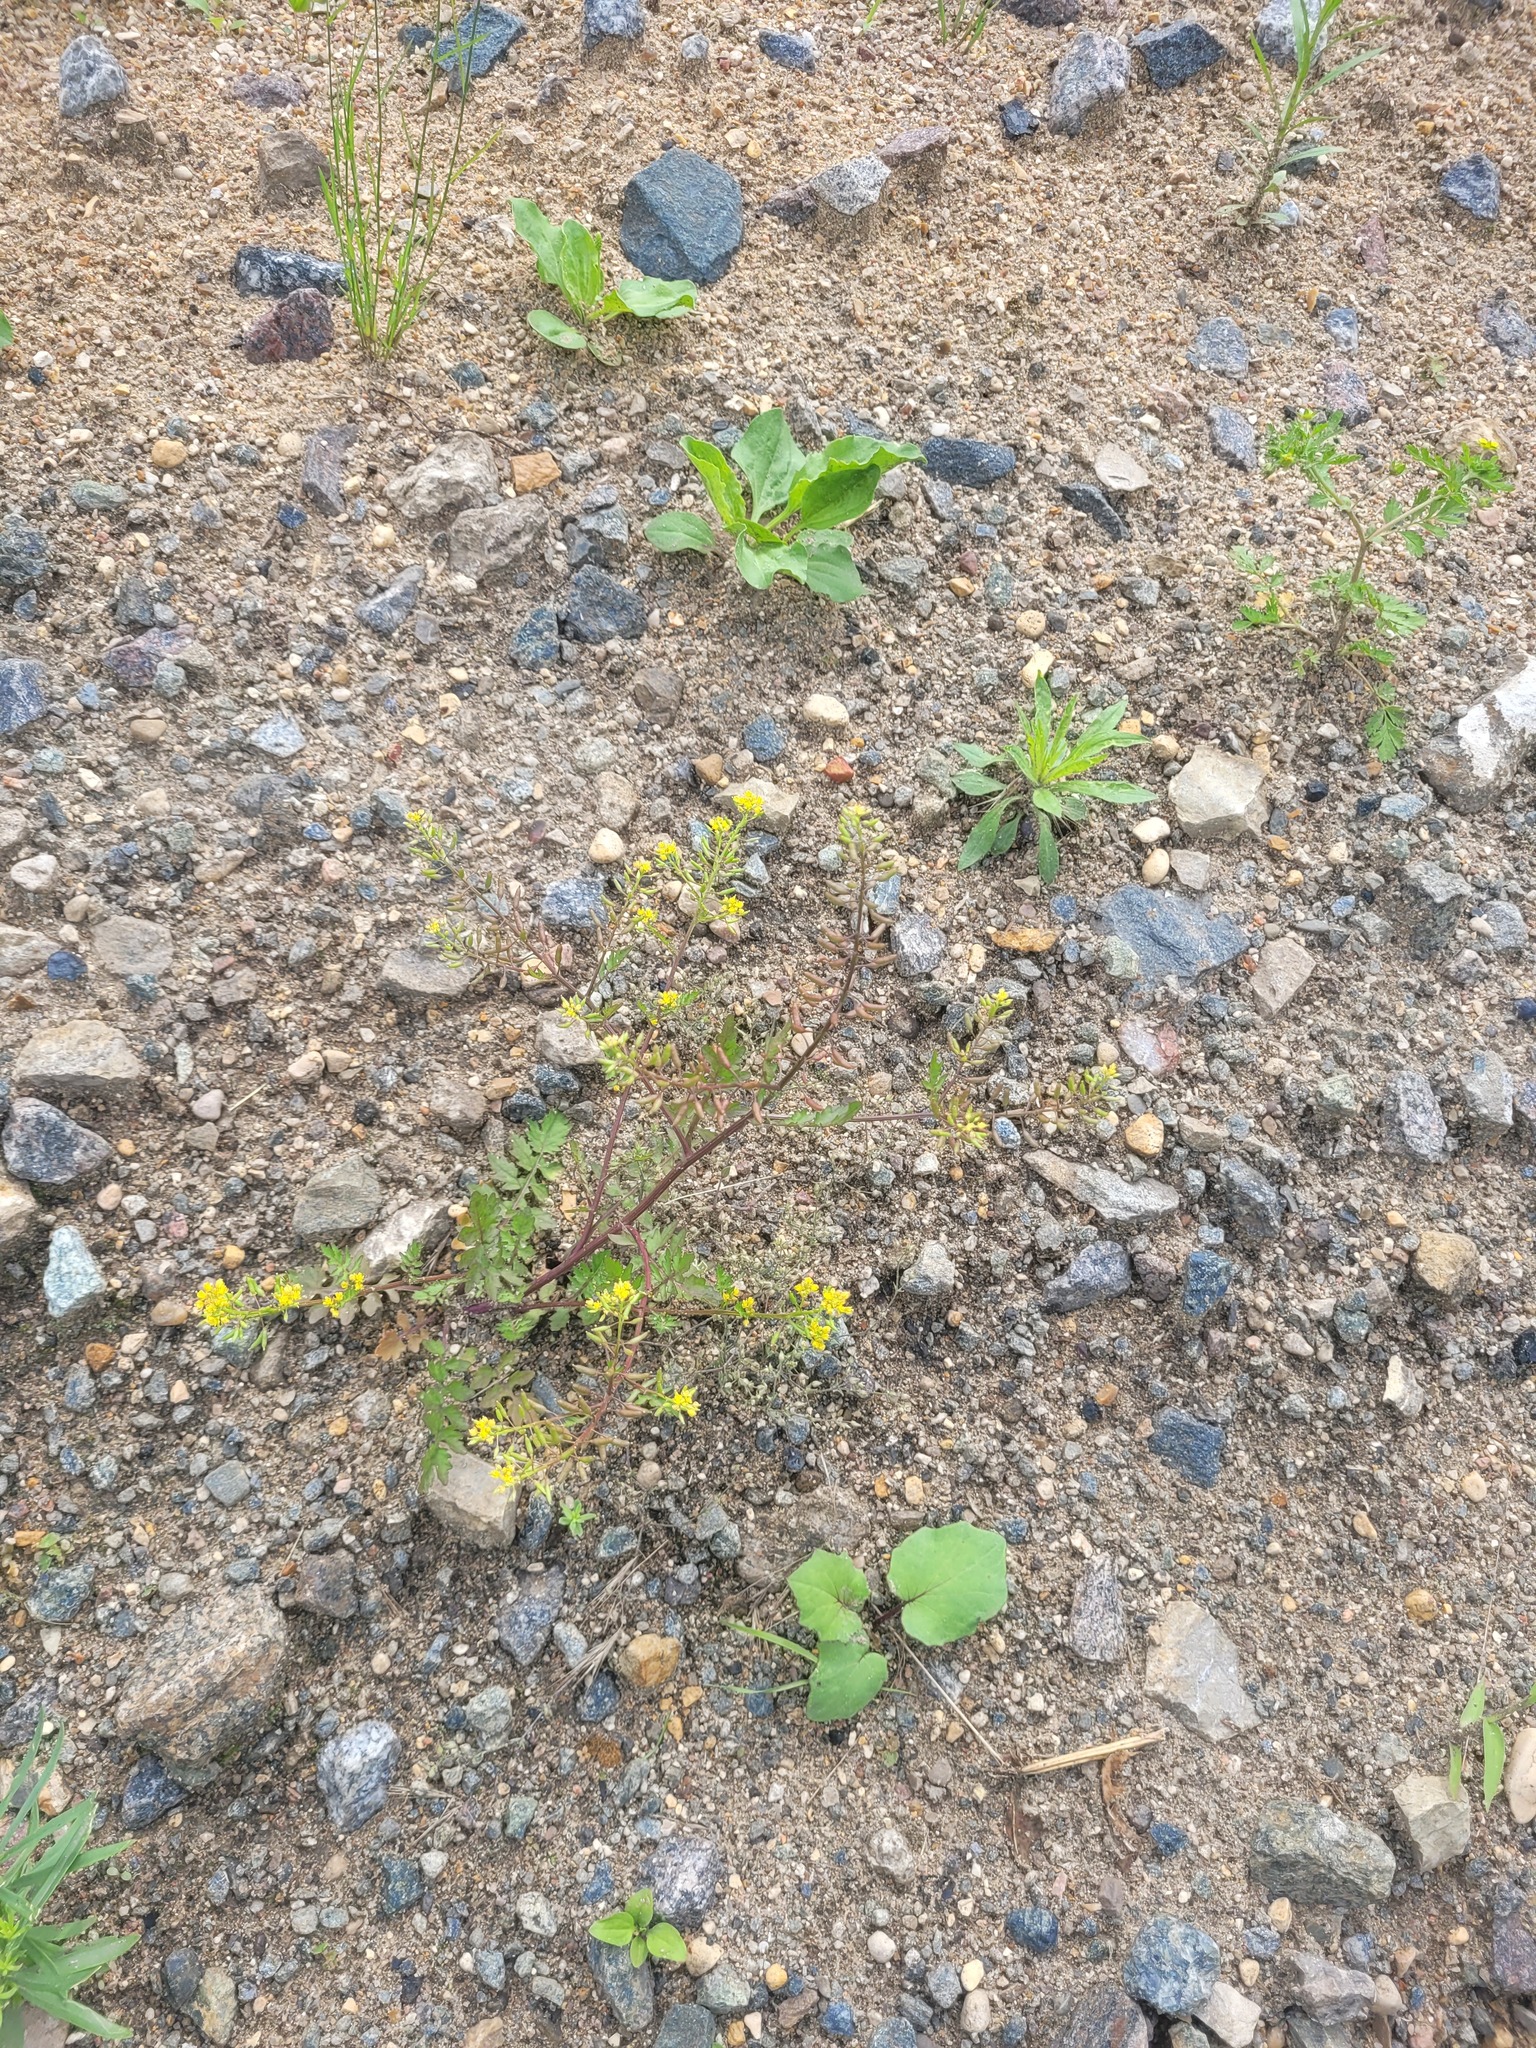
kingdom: Plantae
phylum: Tracheophyta
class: Magnoliopsida
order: Brassicales
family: Brassicaceae
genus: Rorippa
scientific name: Rorippa palustris
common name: Marsh yellow-cress
